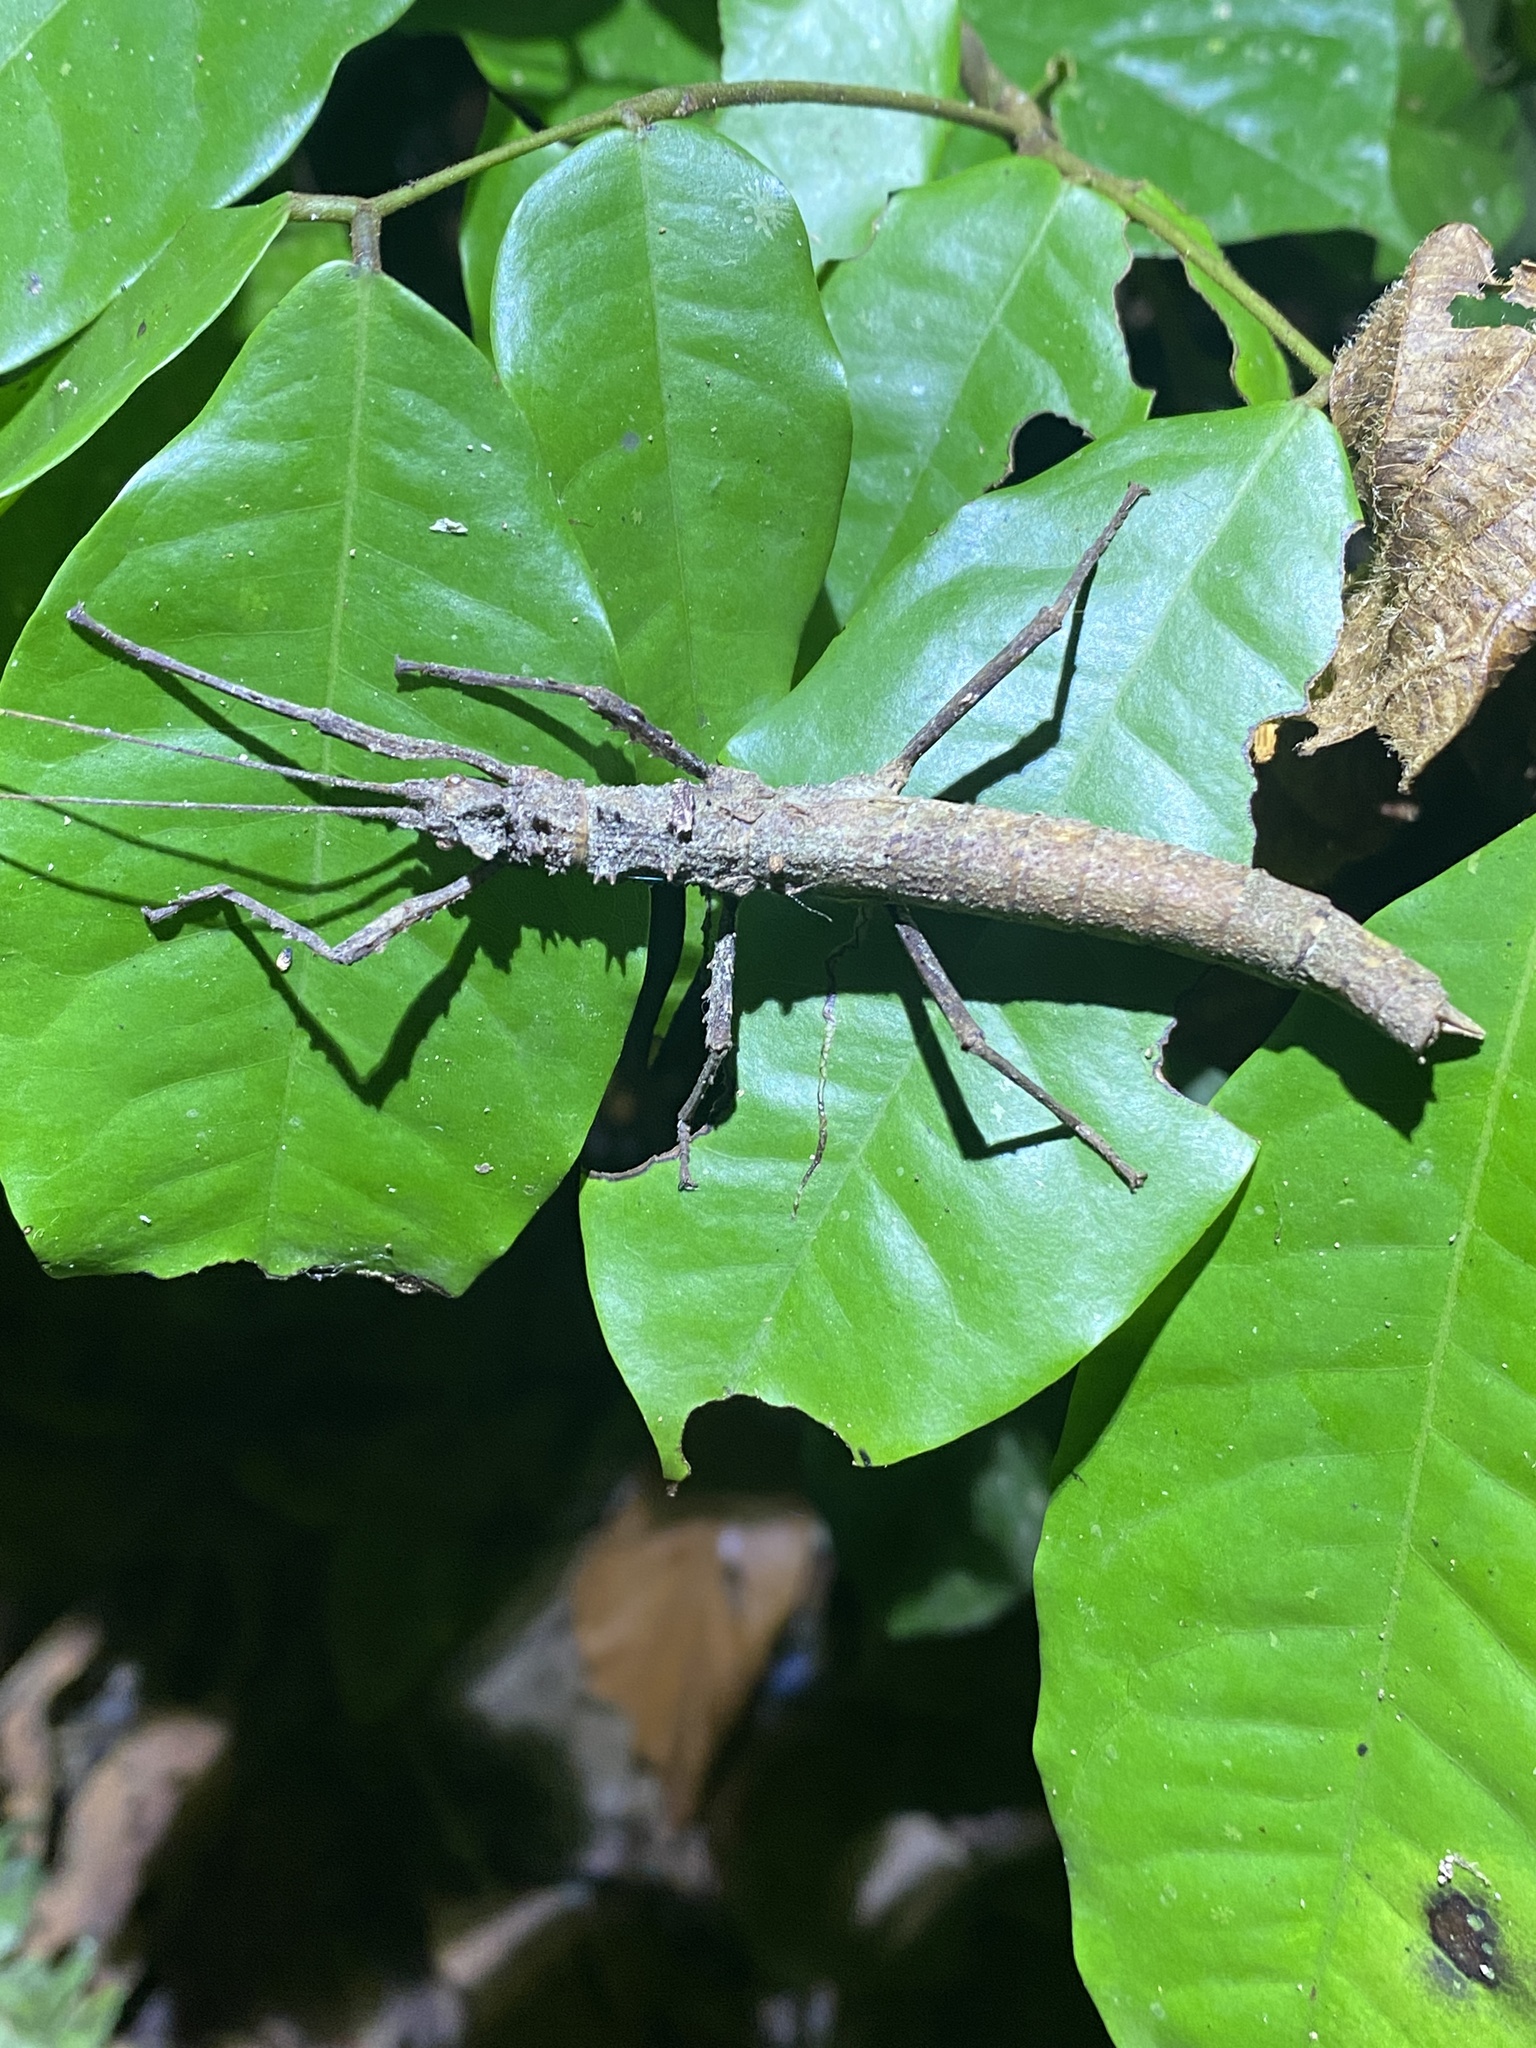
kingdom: Animalia
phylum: Arthropoda
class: Insecta
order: Phasmida
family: Pseudophasmatidae
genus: Creoxylus
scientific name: Creoxylus spinosus
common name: Trinidad log stick insect
